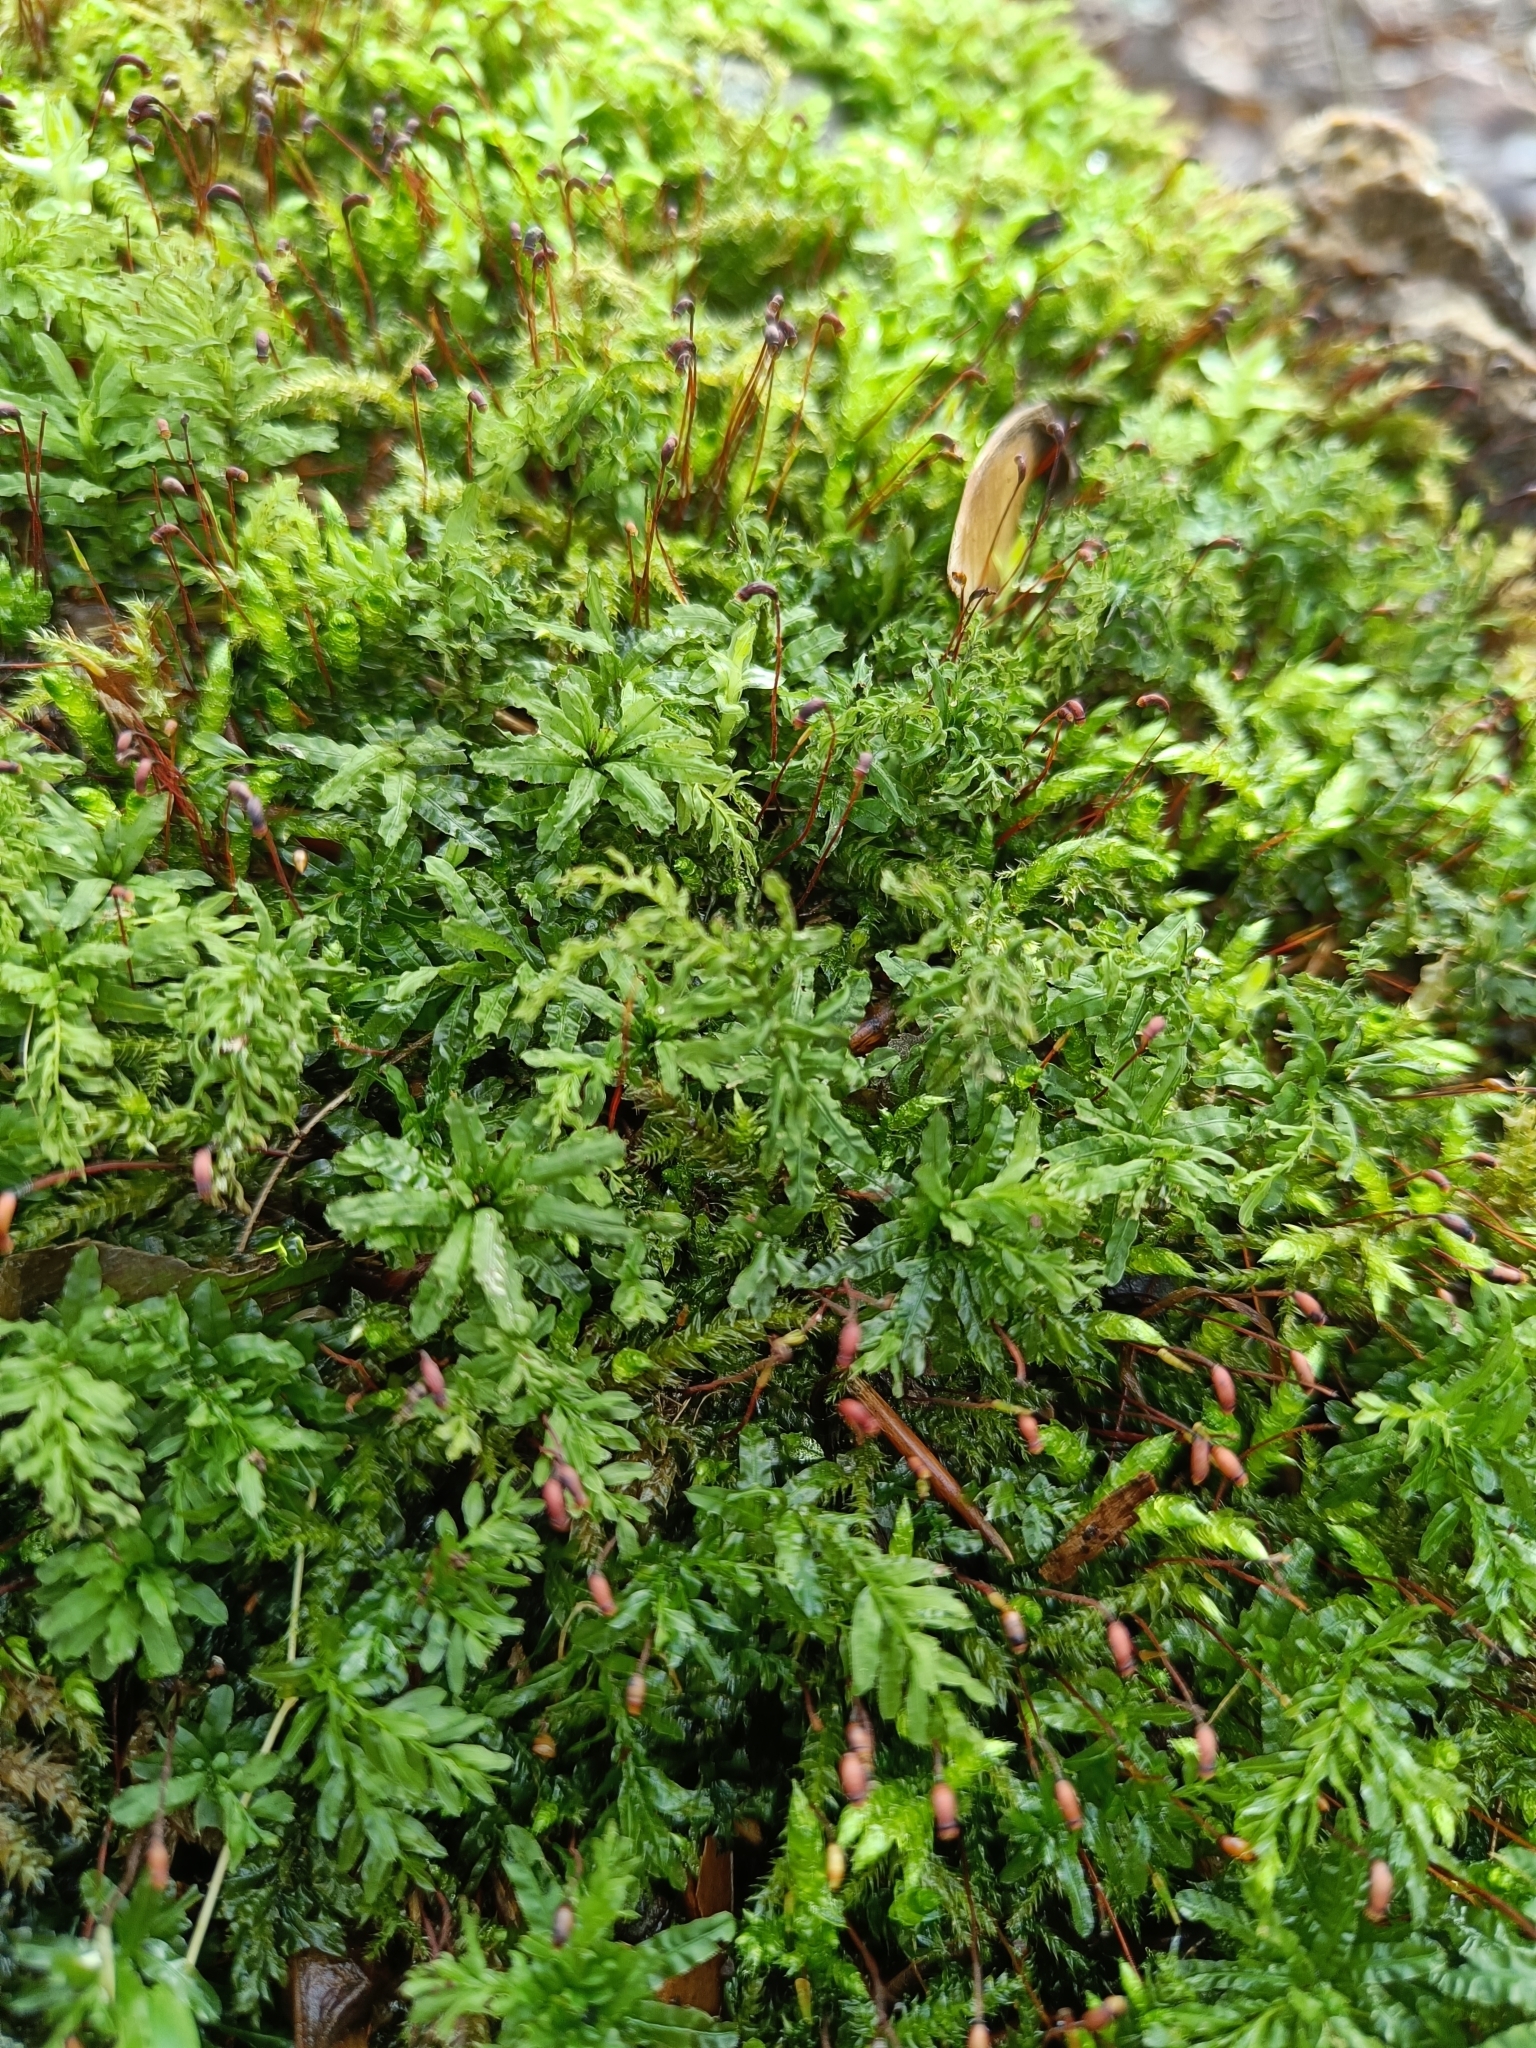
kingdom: Plantae
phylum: Bryophyta
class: Bryopsida
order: Bryales
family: Mniaceae
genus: Plagiomnium
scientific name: Plagiomnium undulatum
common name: Hart's-tongue thyme-moss
